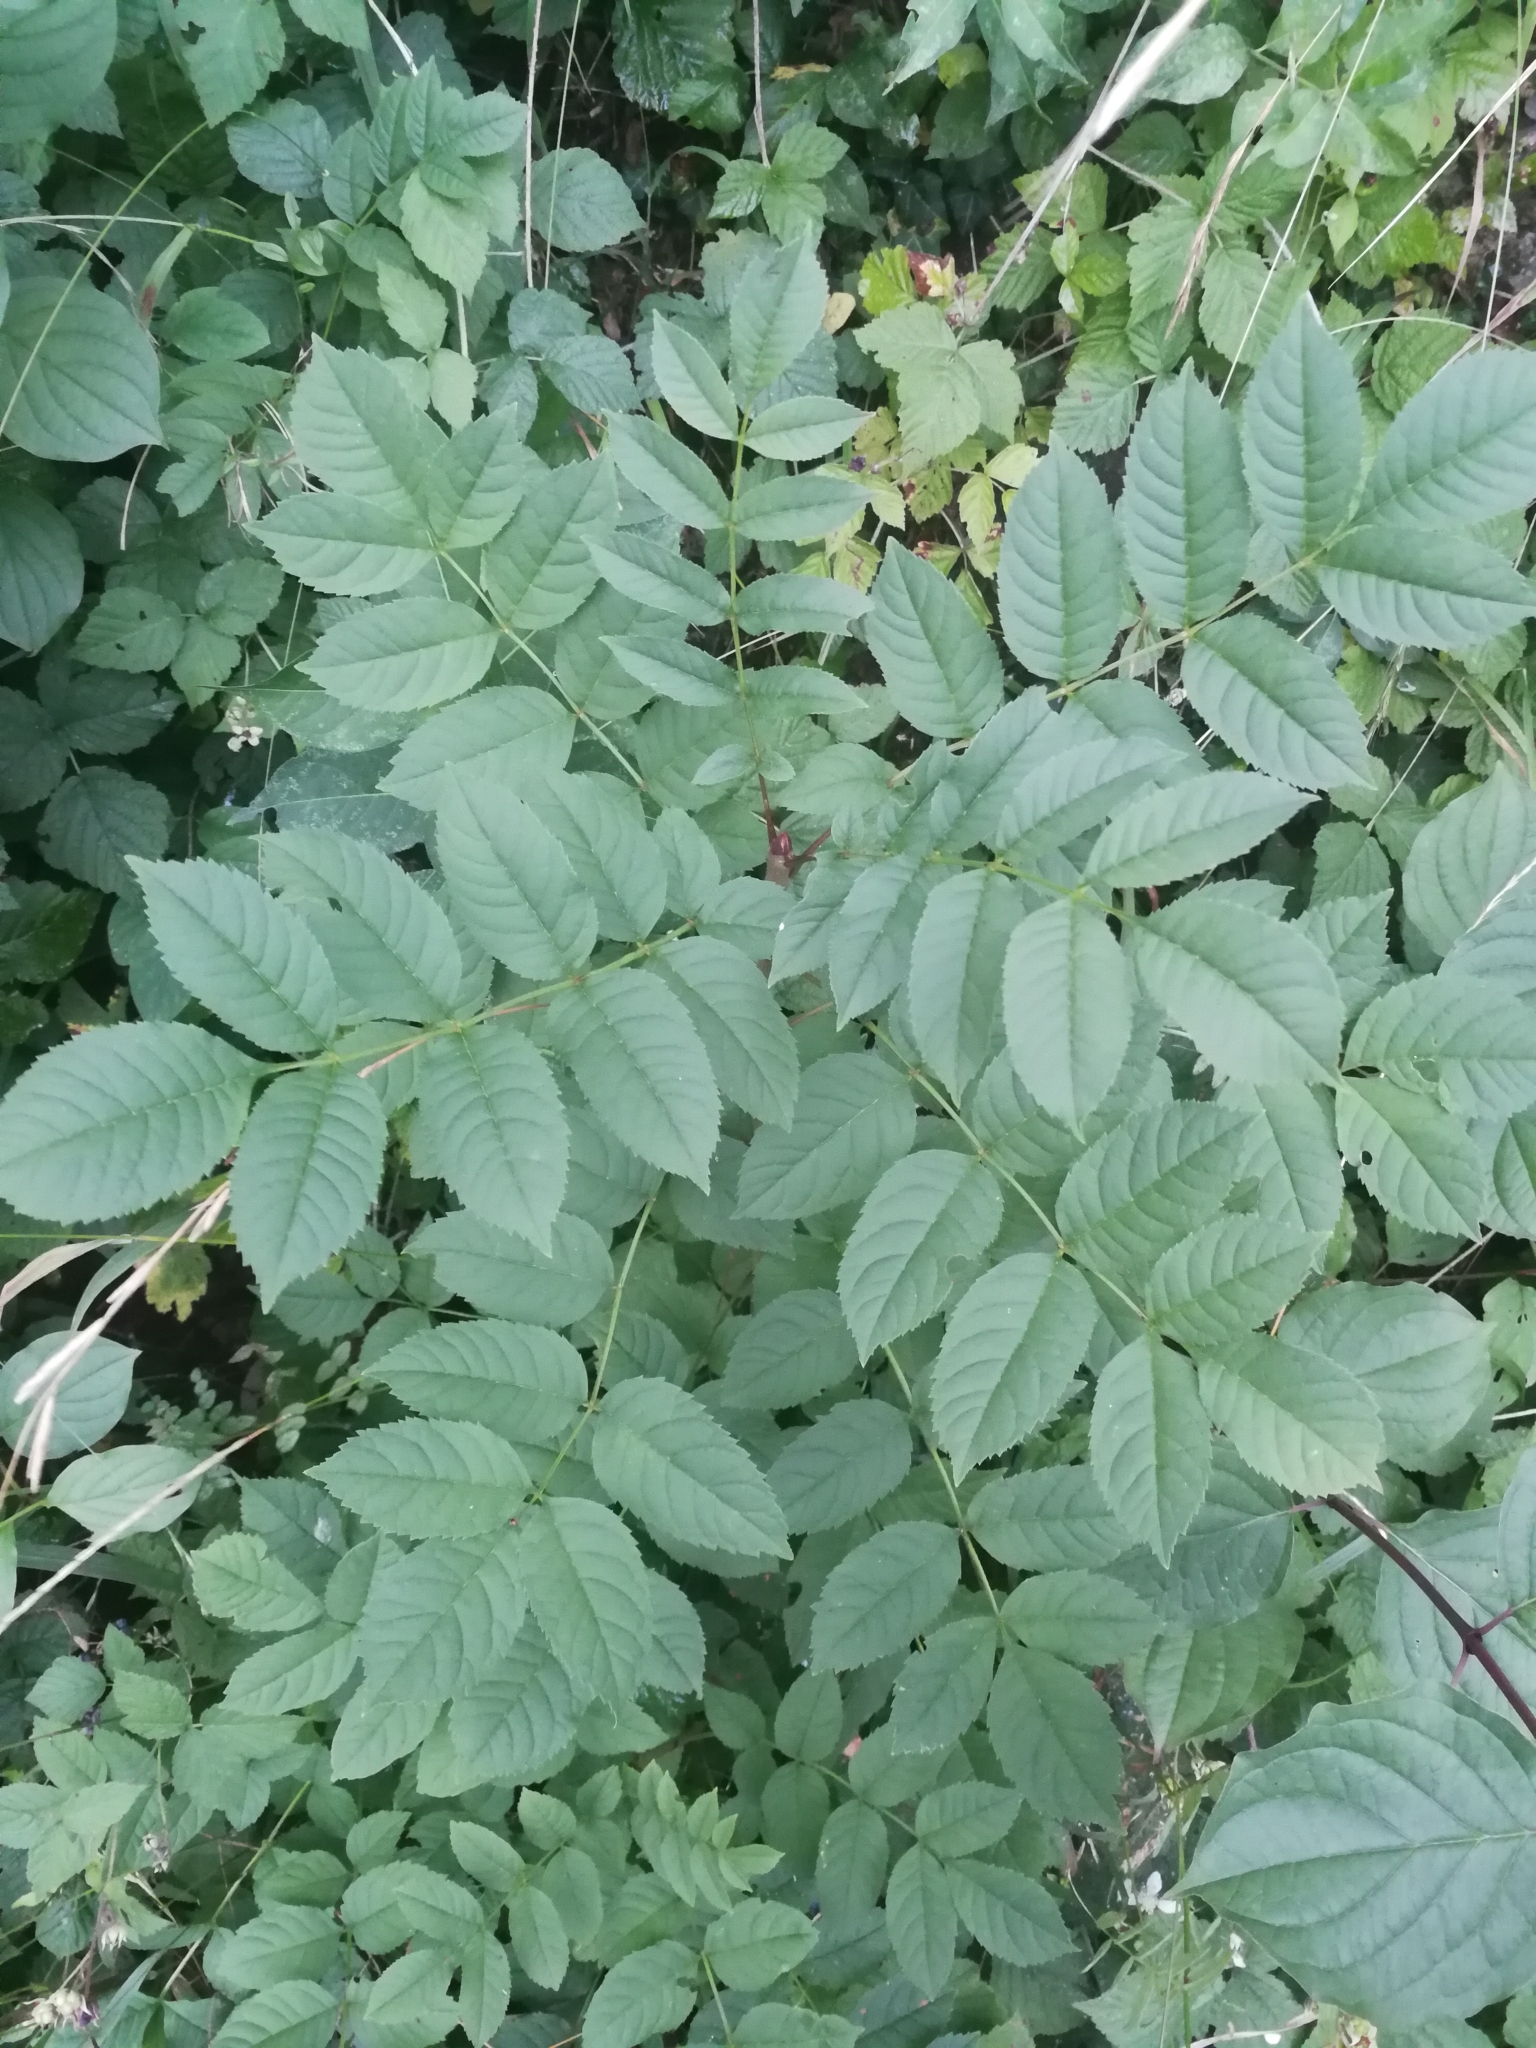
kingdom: Plantae
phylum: Tracheophyta
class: Magnoliopsida
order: Lamiales
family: Oleaceae
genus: Fraxinus
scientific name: Fraxinus excelsior
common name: European ash
